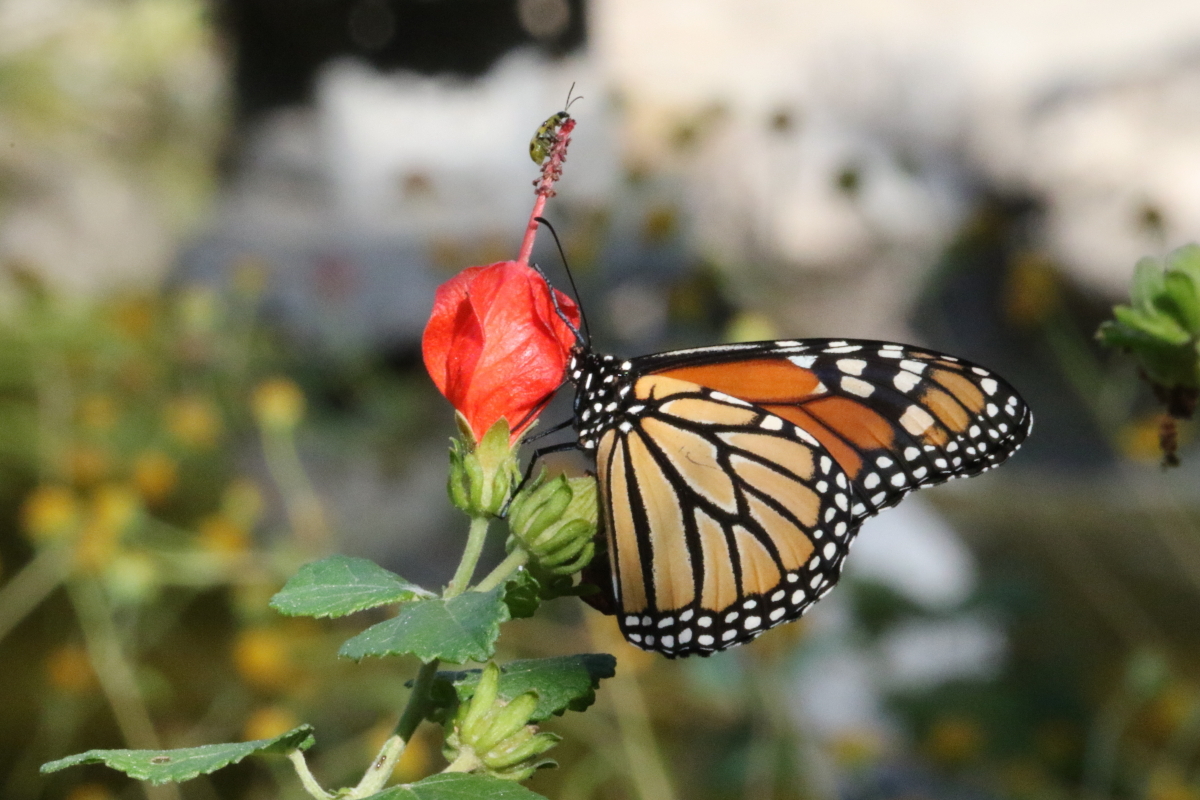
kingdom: Animalia
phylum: Arthropoda
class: Insecta
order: Lepidoptera
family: Nymphalidae
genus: Danaus
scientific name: Danaus plexippus
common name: Monarch
